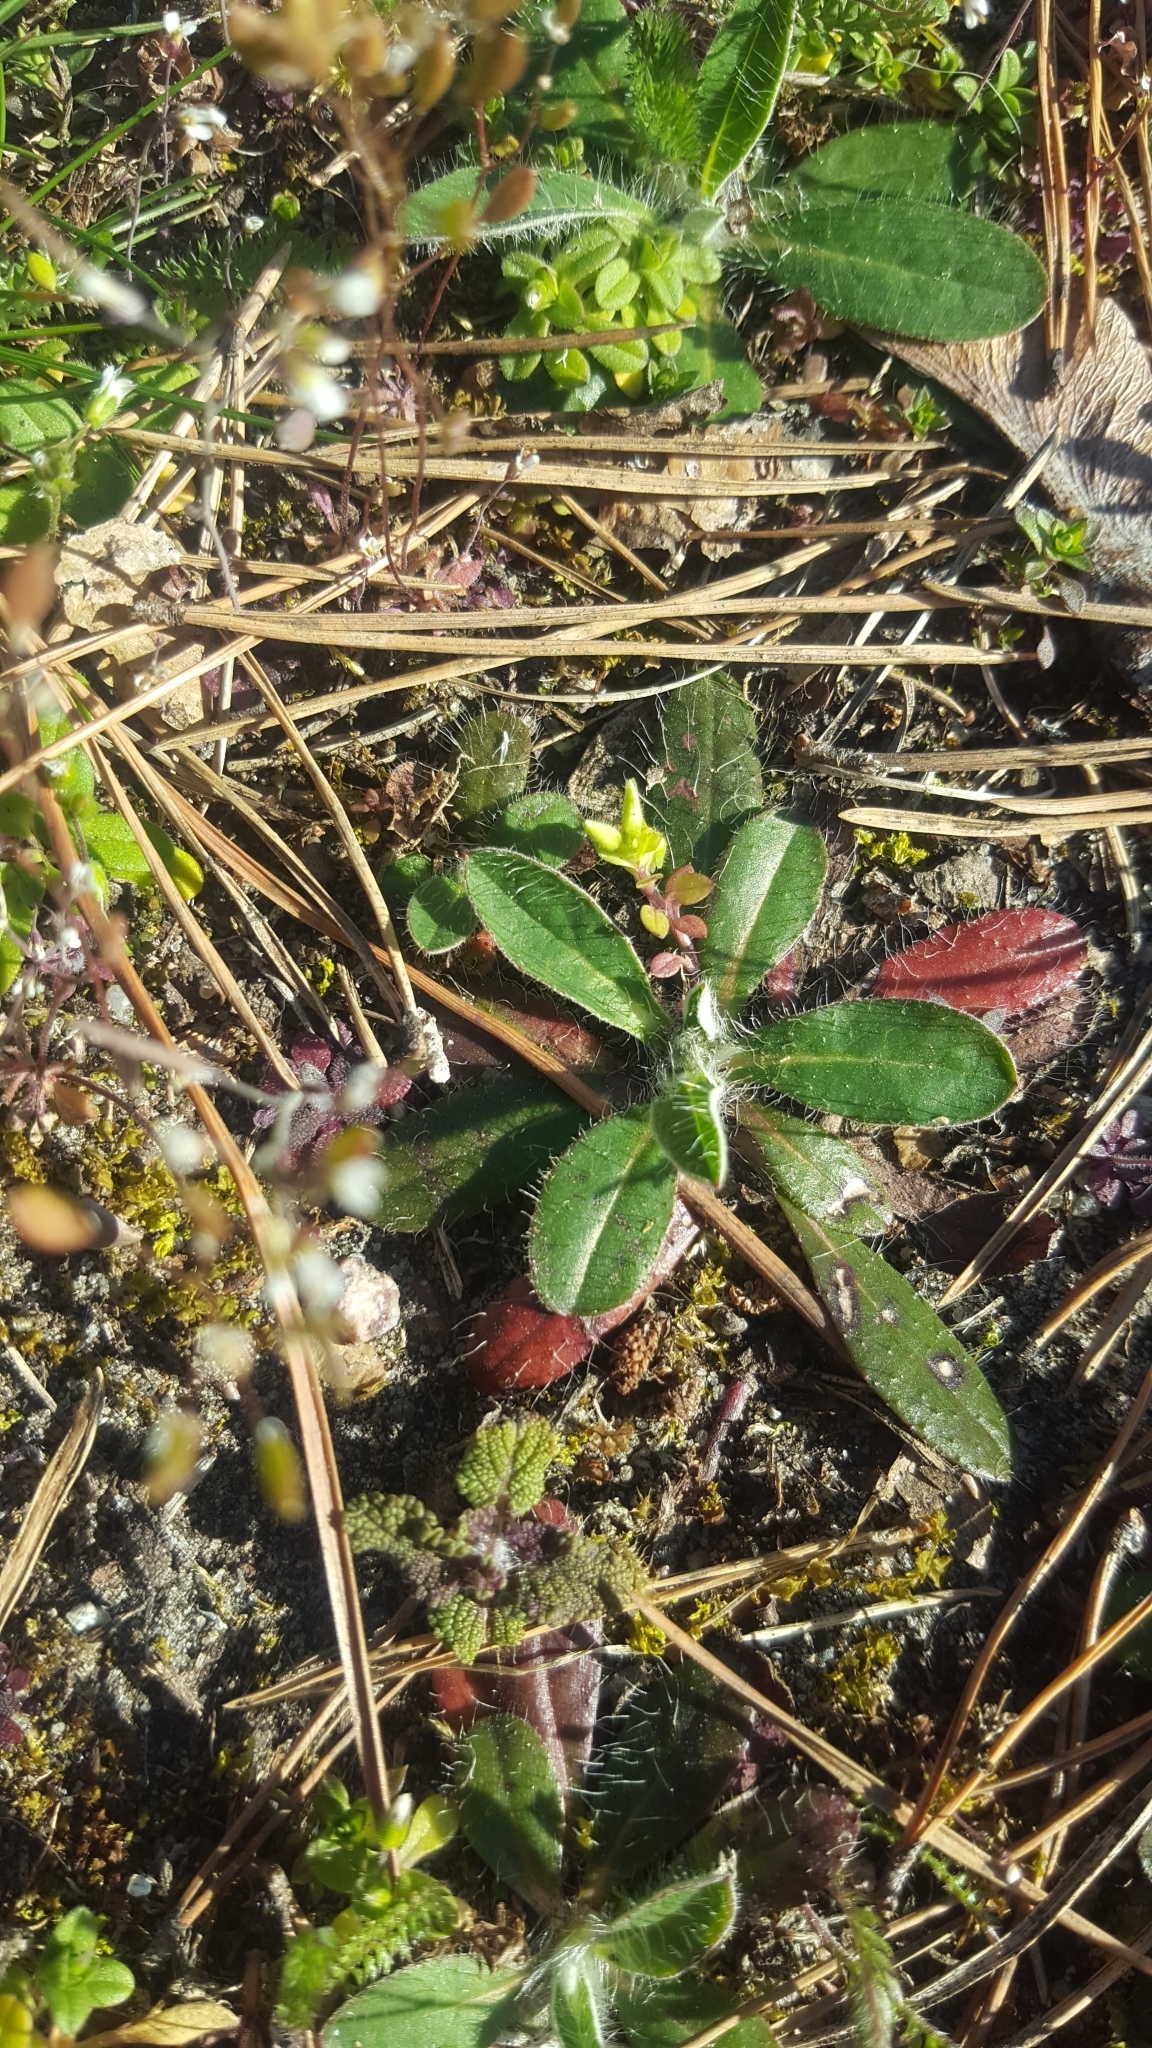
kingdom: Plantae
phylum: Tracheophyta
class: Magnoliopsida
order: Asterales
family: Asteraceae
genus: Pilosella
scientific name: Pilosella officinarum
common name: Mouse-ear hawkweed
